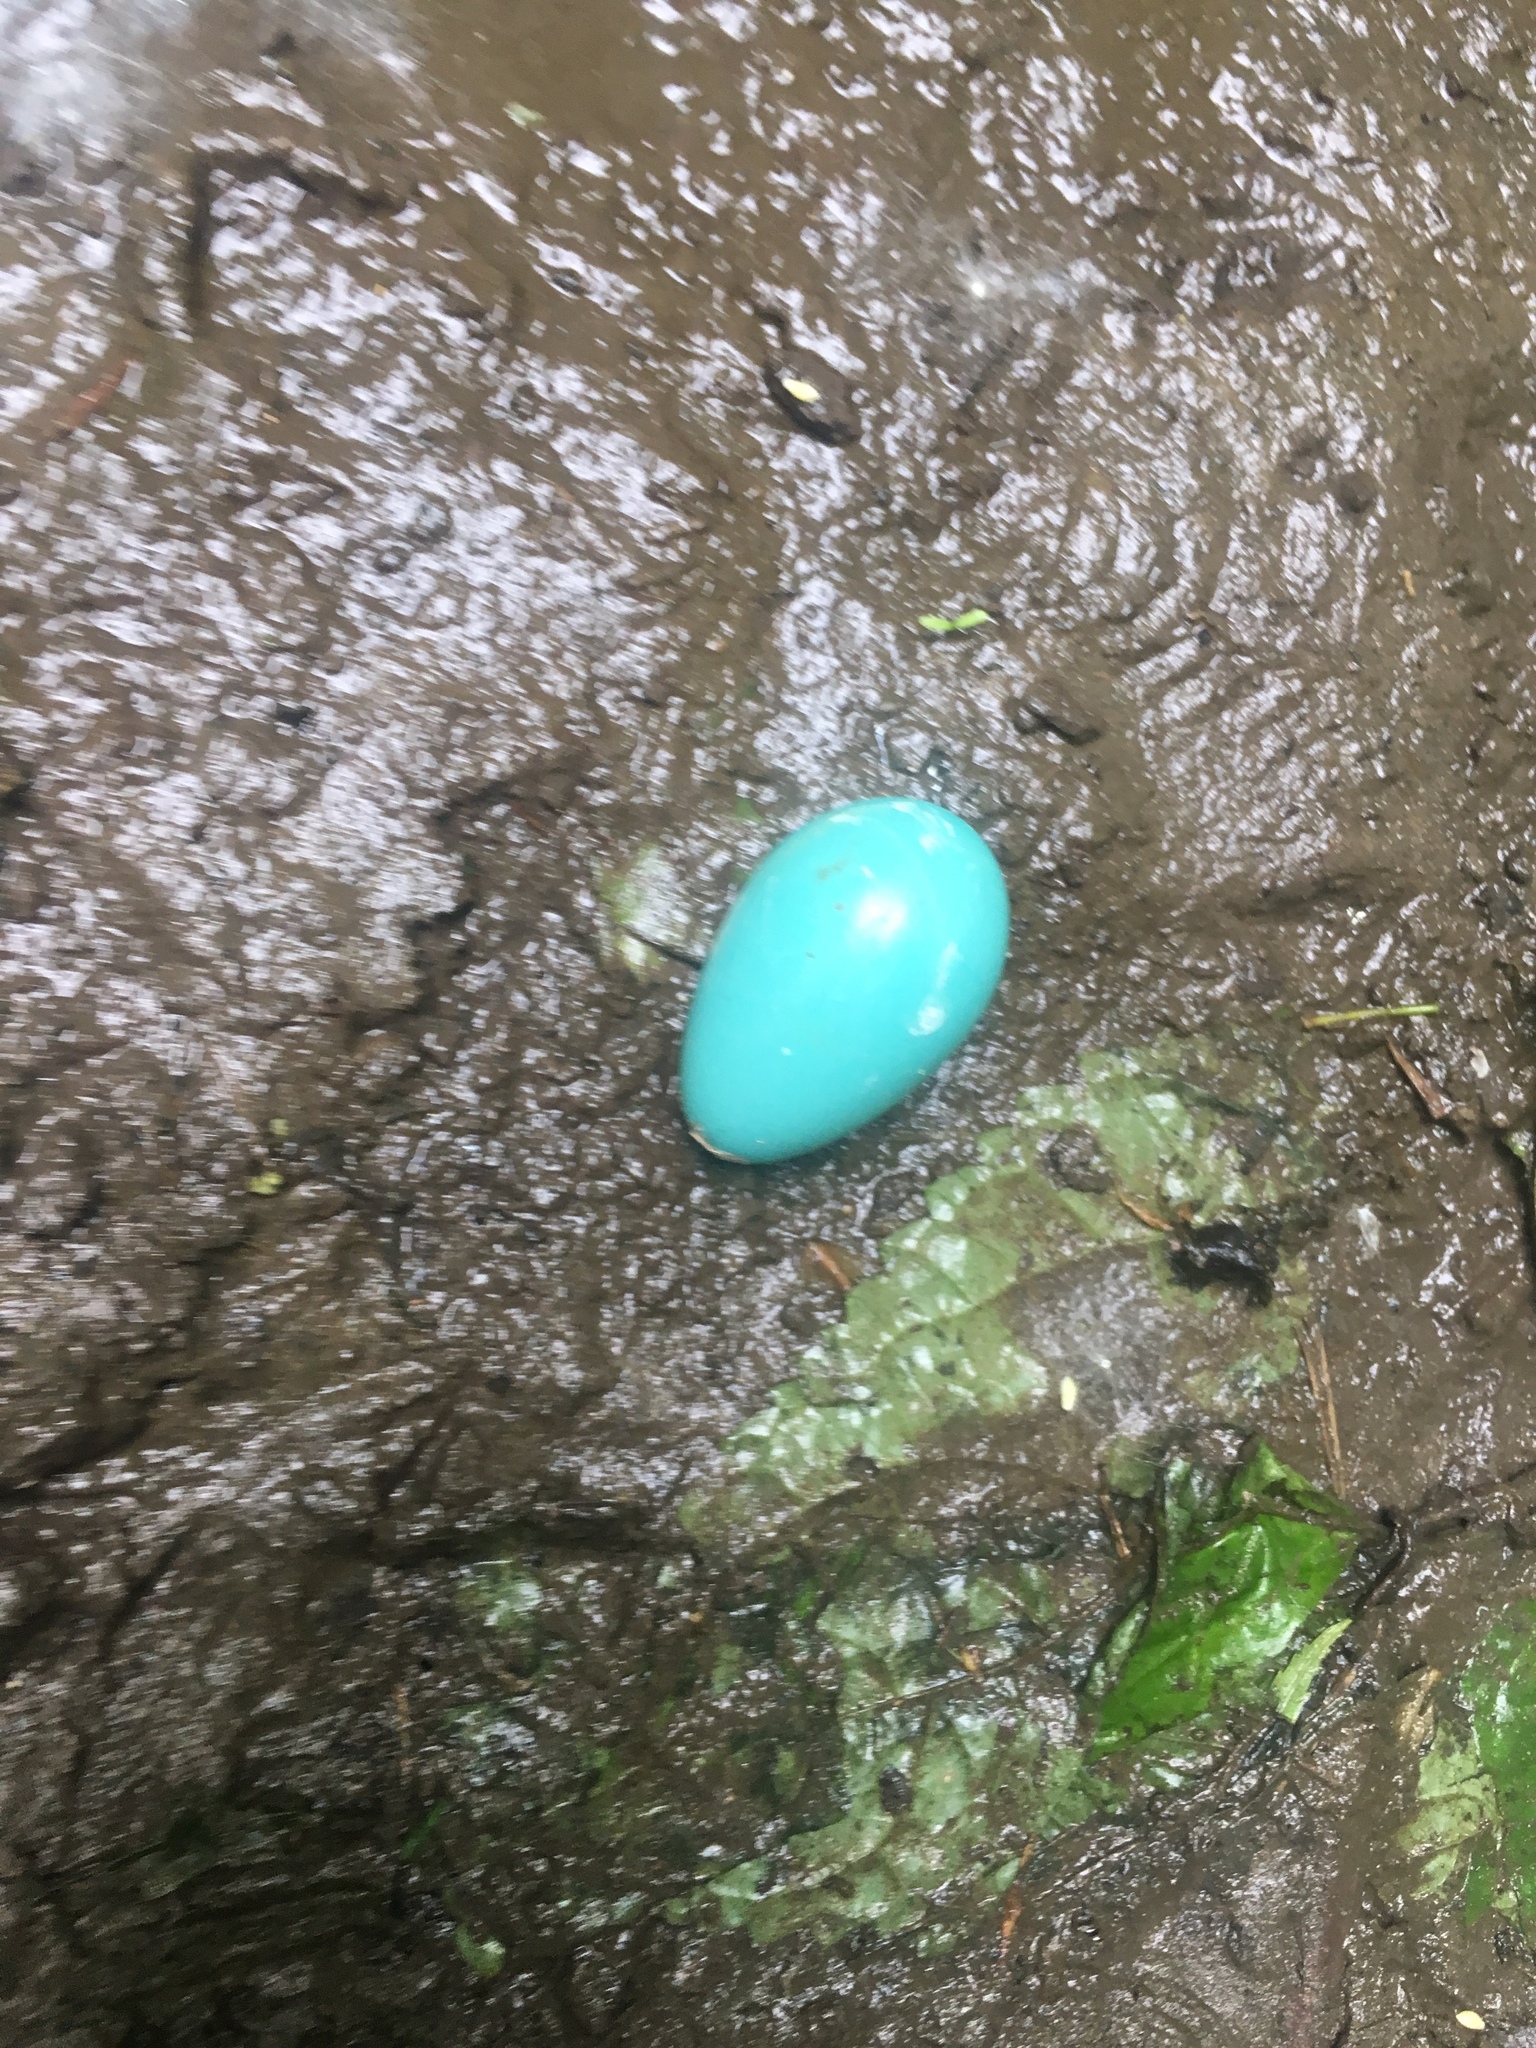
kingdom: Animalia
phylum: Chordata
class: Aves
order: Passeriformes
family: Turdidae
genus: Turdus
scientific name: Turdus migratorius
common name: American robin
